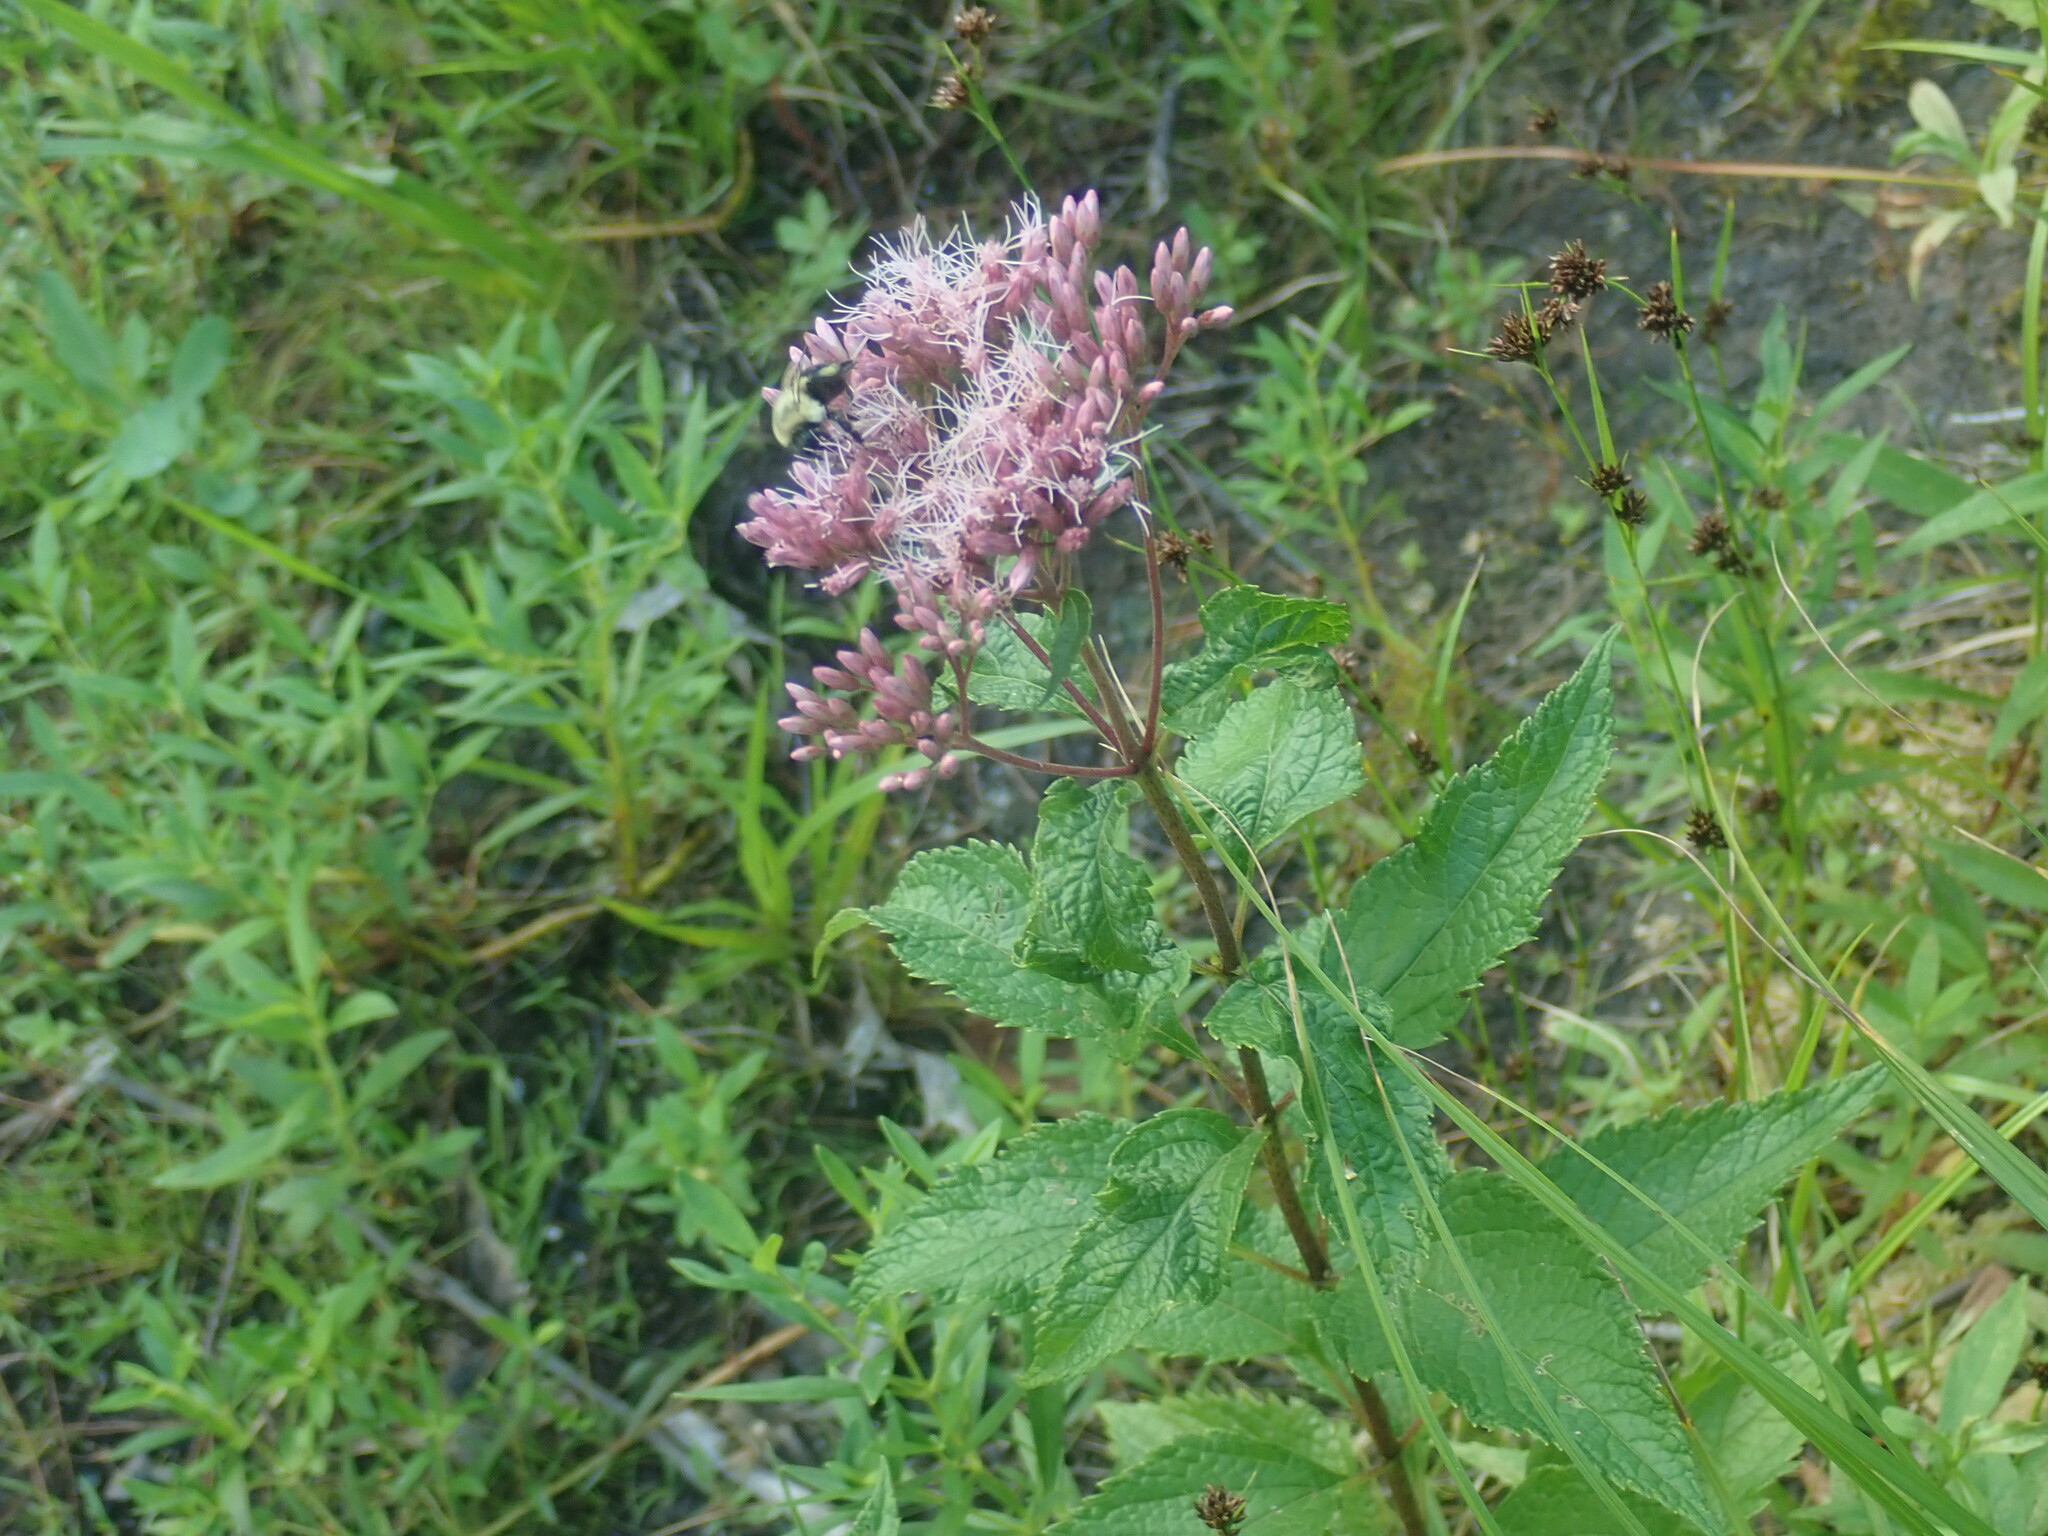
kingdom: Plantae
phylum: Tracheophyta
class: Magnoliopsida
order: Asterales
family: Asteraceae
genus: Eutrochium
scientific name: Eutrochium
